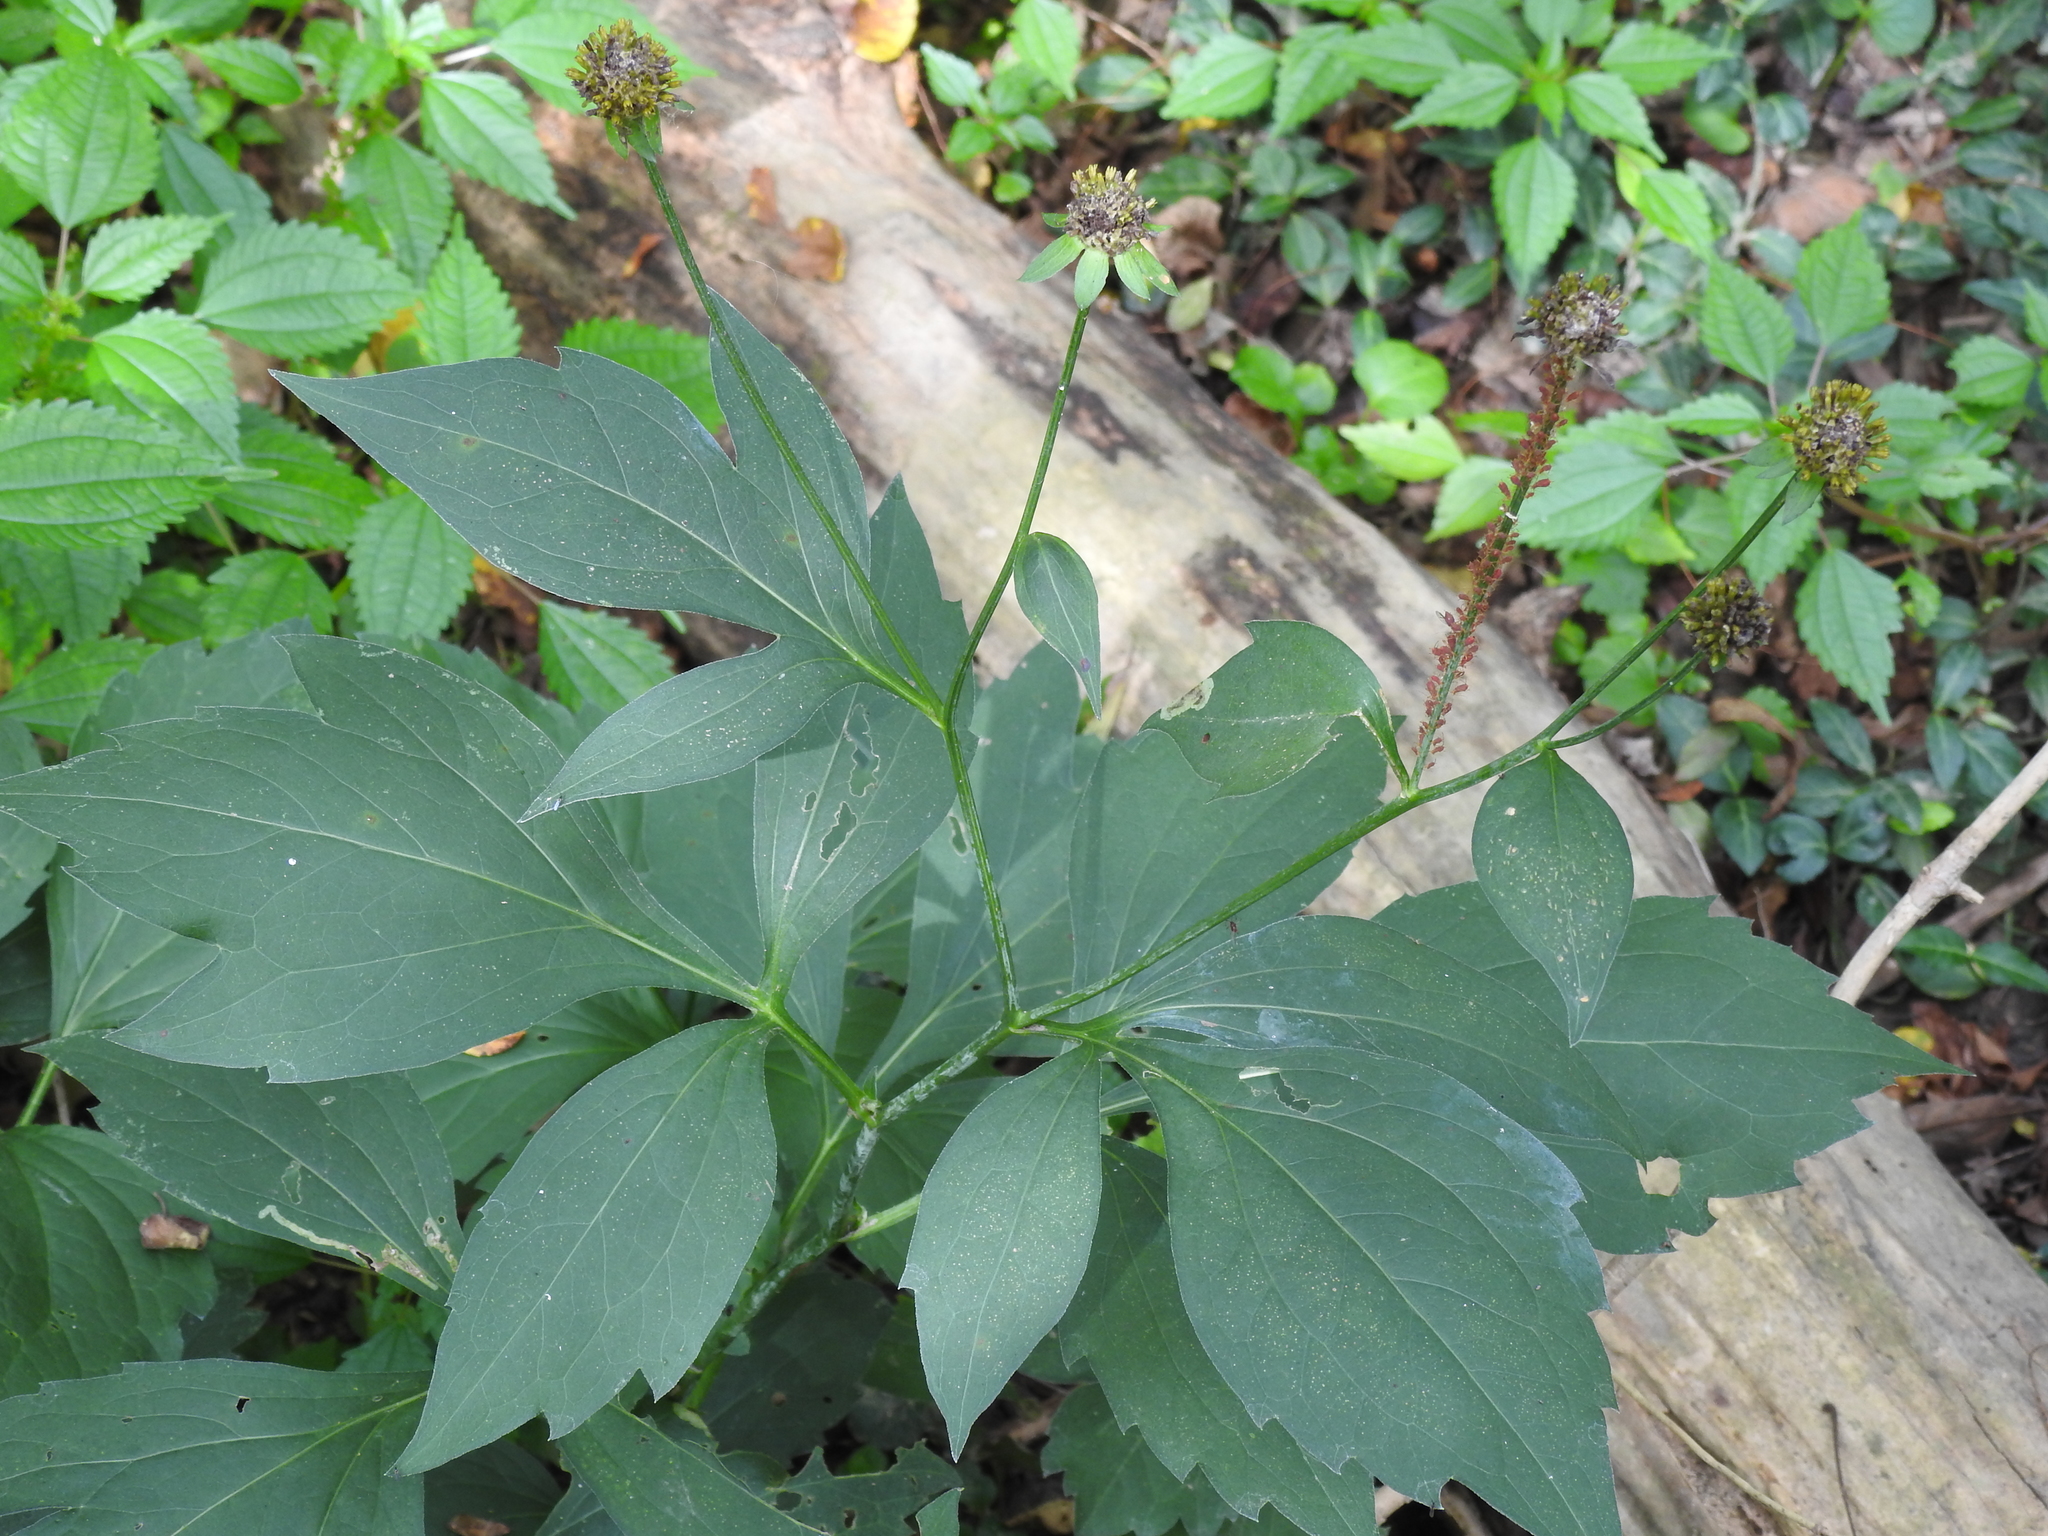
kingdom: Plantae
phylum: Tracheophyta
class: Magnoliopsida
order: Asterales
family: Asteraceae
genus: Rudbeckia
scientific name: Rudbeckia laciniata
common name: Coneflower
